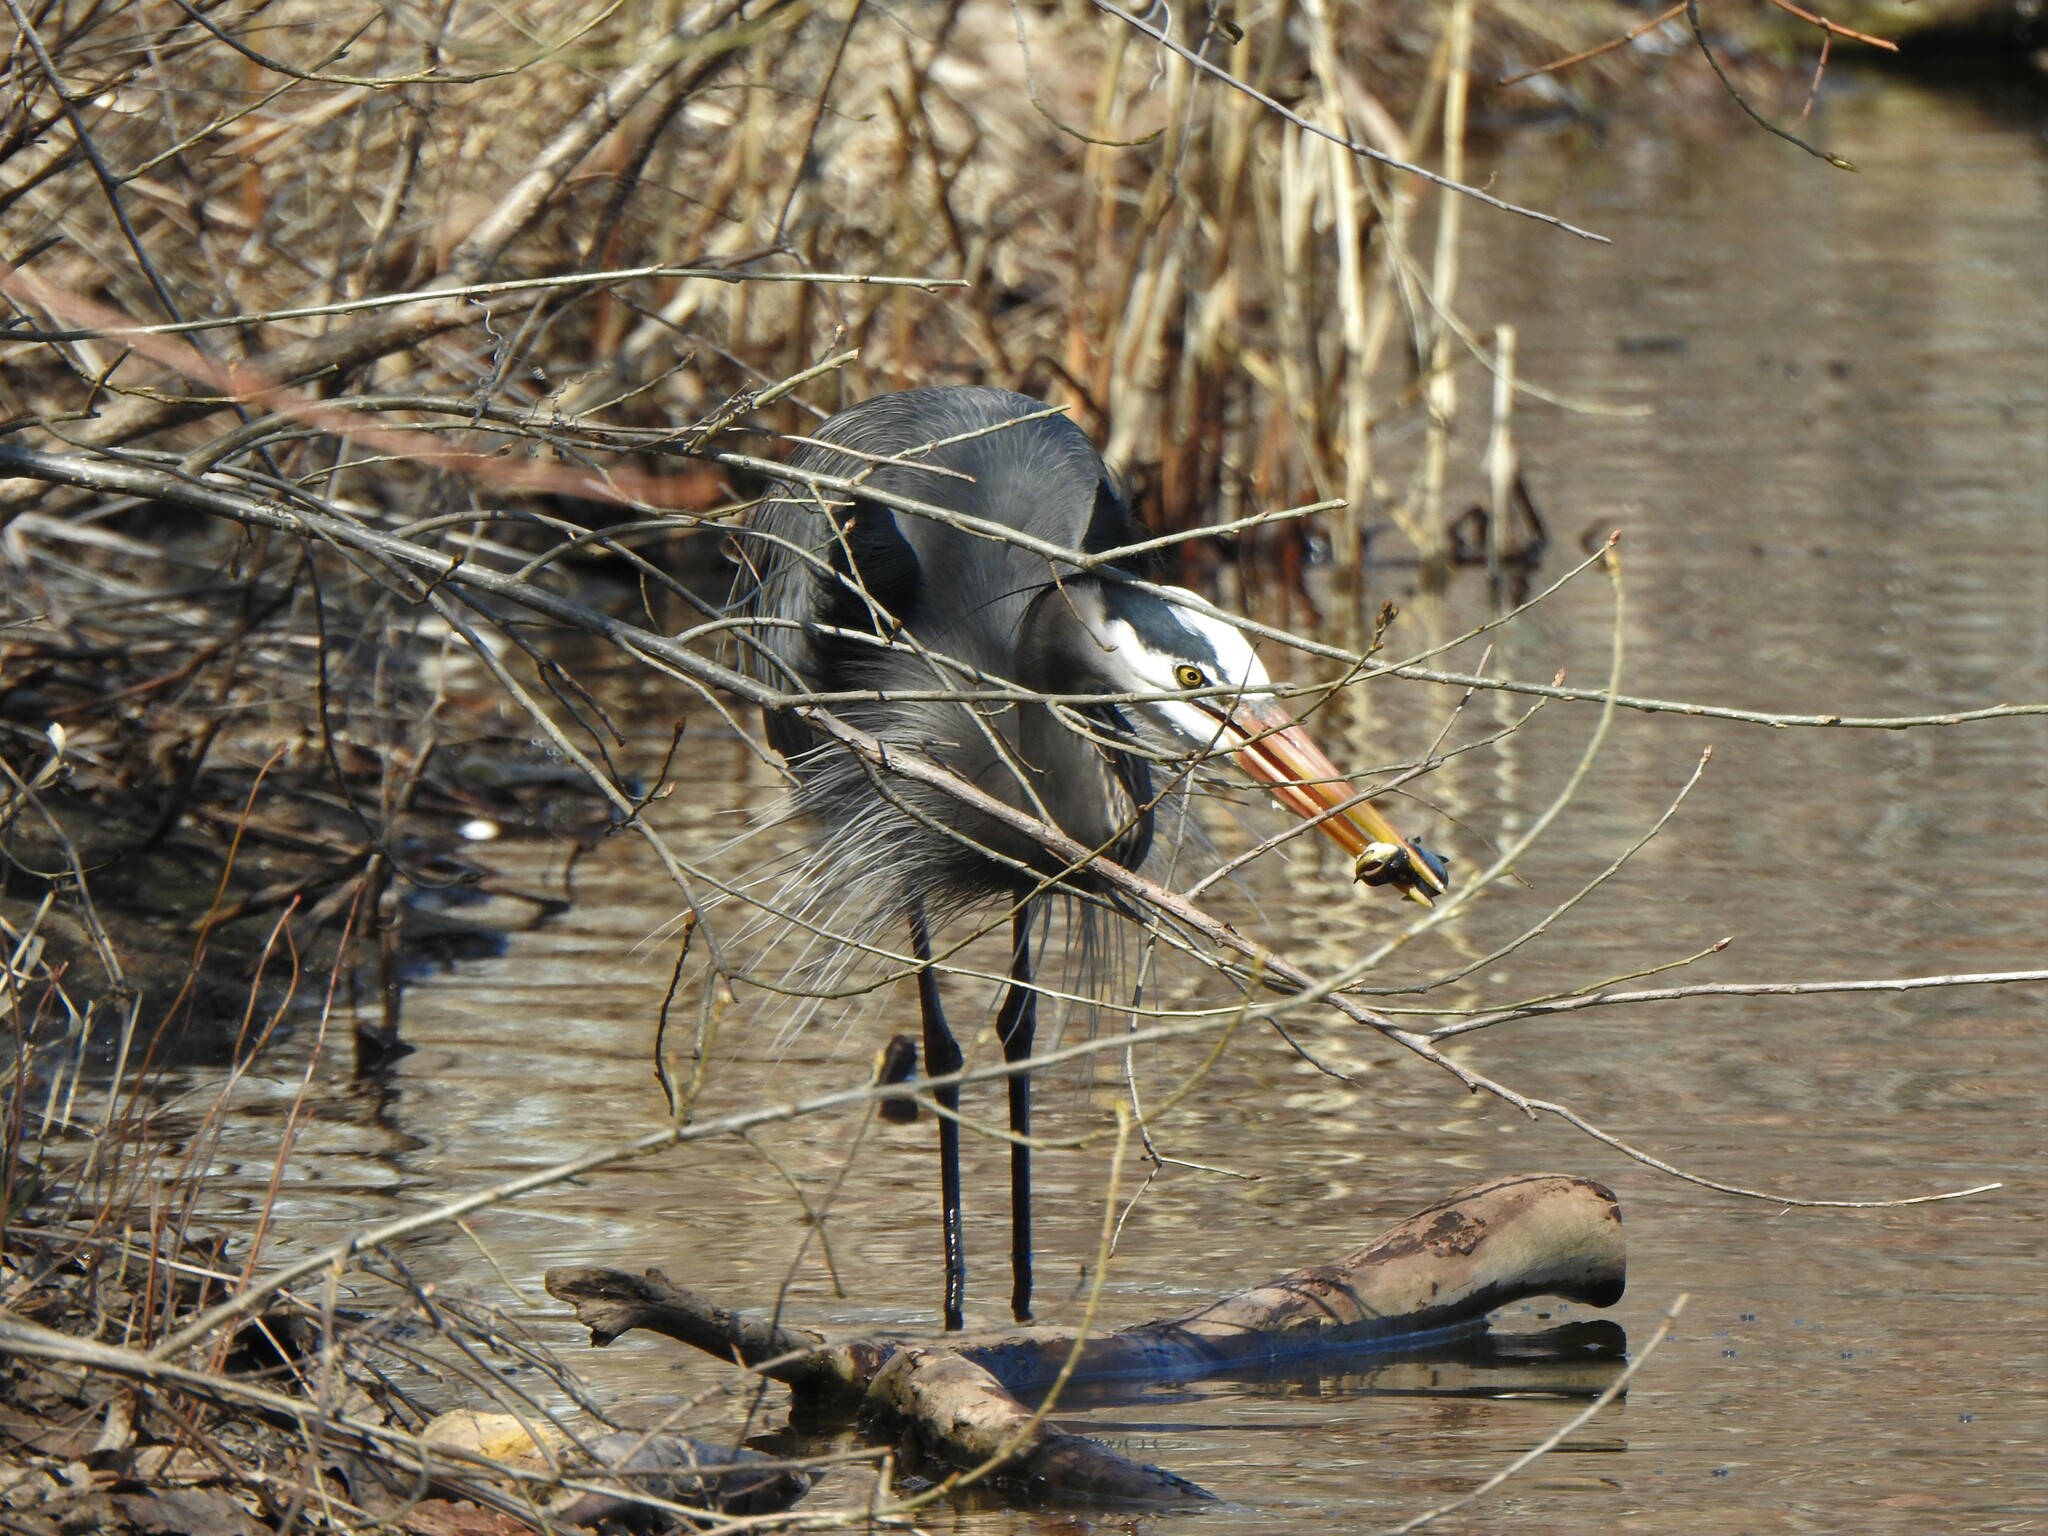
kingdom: Animalia
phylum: Chordata
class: Aves
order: Pelecaniformes
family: Ardeidae
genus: Ardea
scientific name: Ardea herodias
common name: Great blue heron
